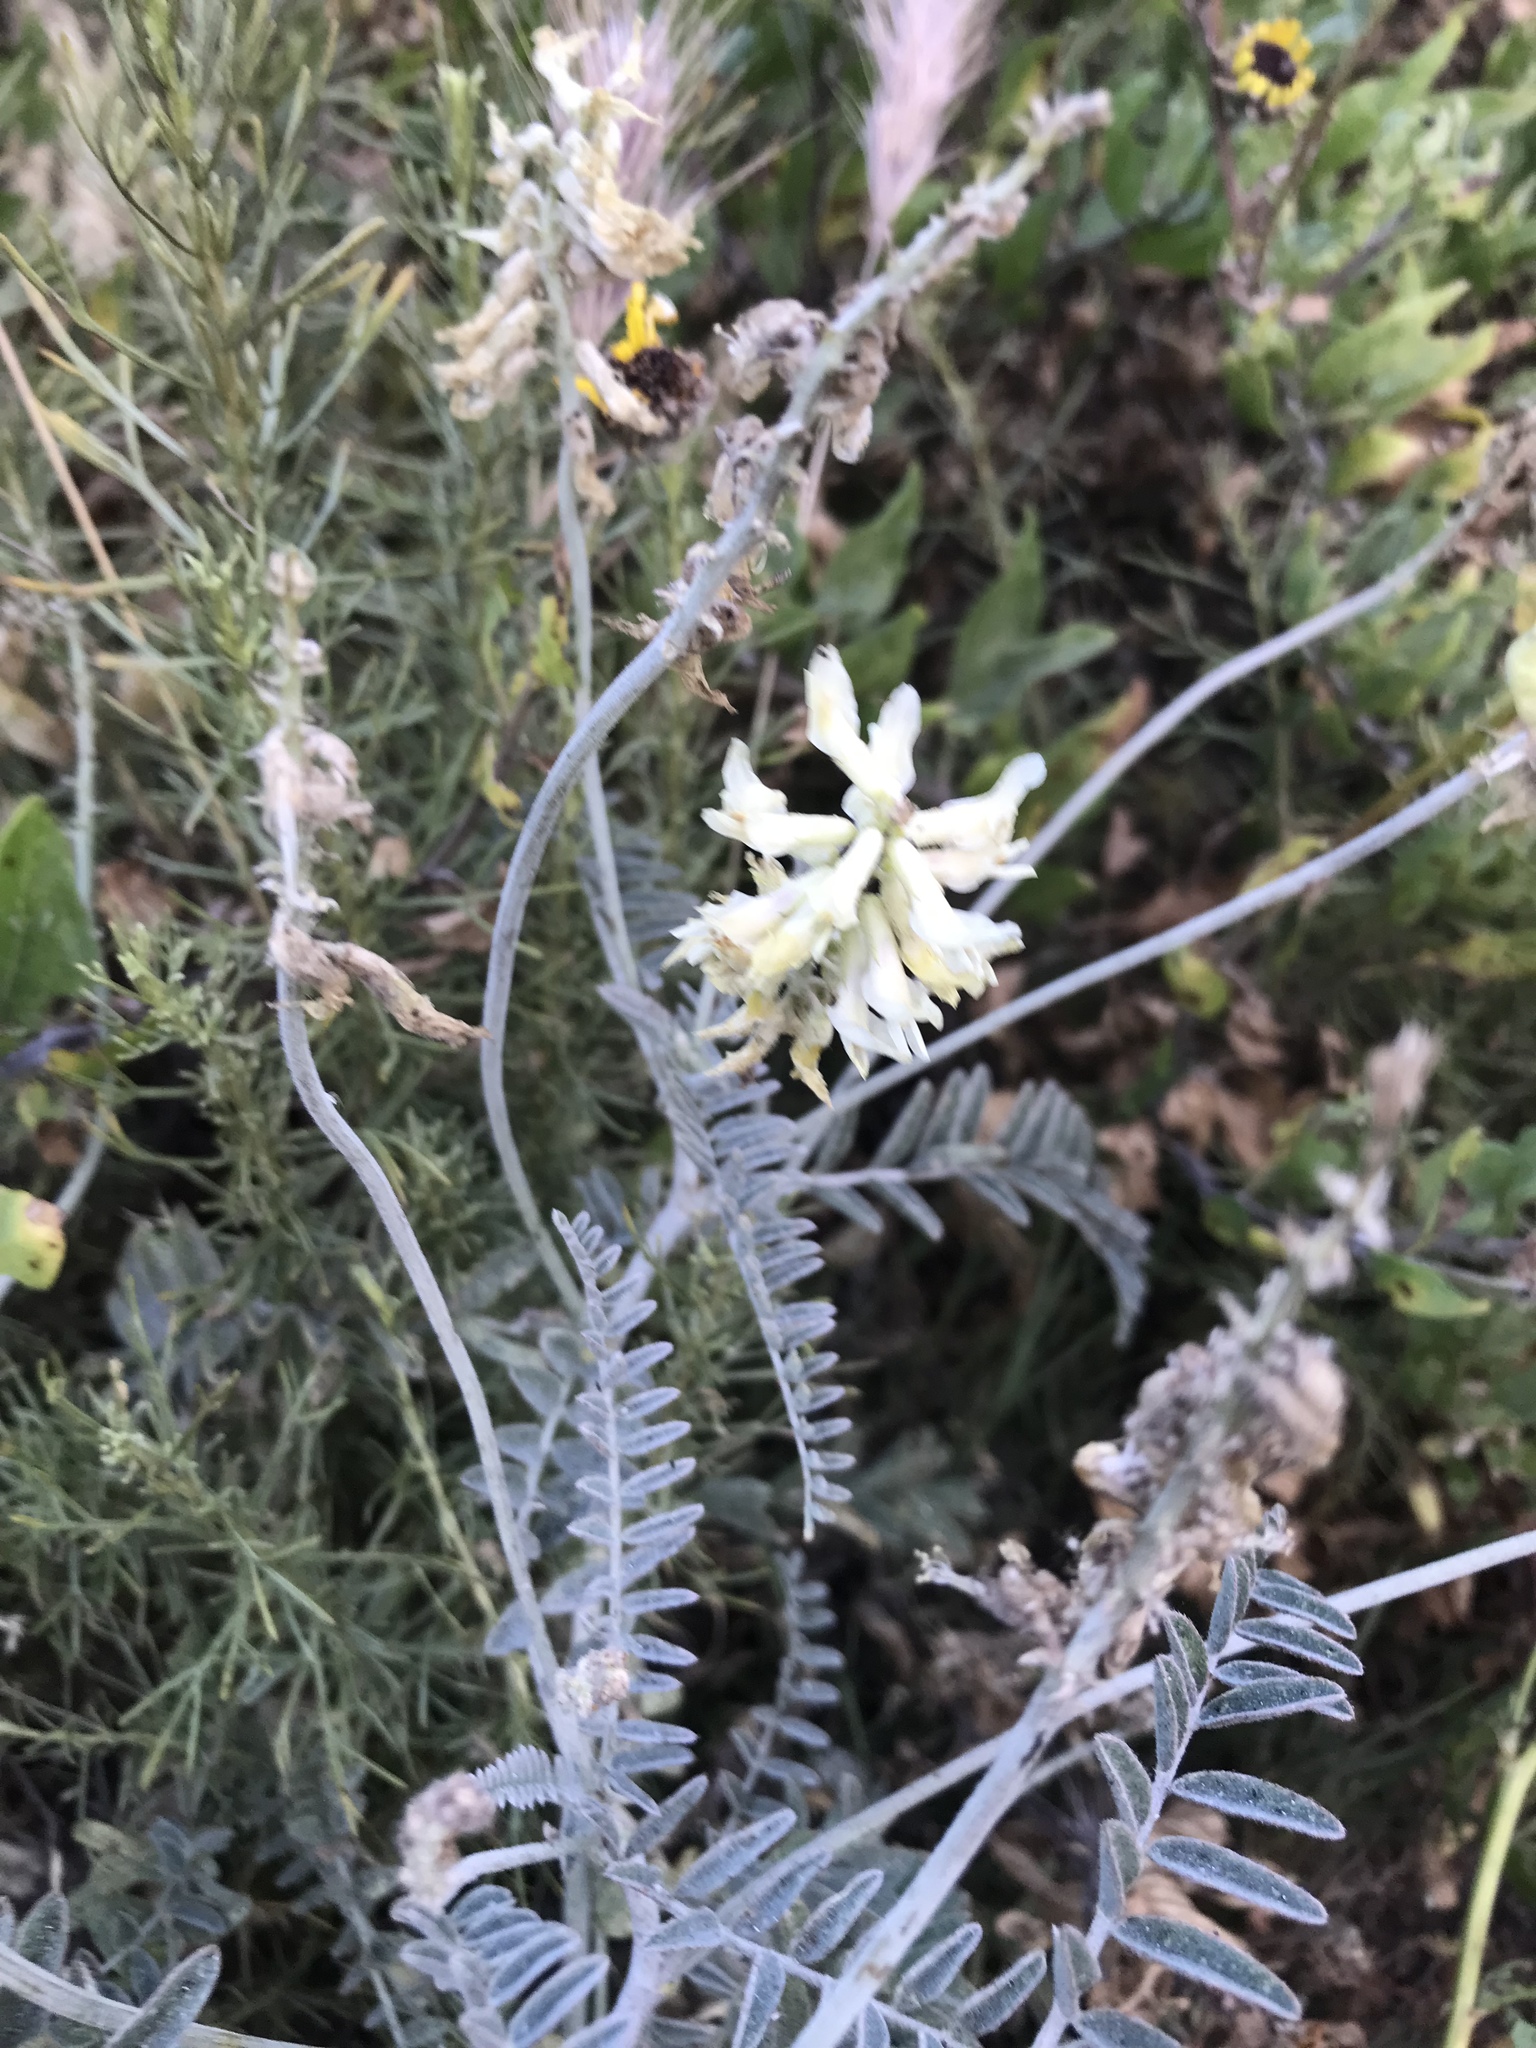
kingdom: Plantae
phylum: Tracheophyta
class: Magnoliopsida
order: Fabales
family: Fabaceae
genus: Astragalus
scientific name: Astragalus trichopodus
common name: Santa barbara milk-vetch
